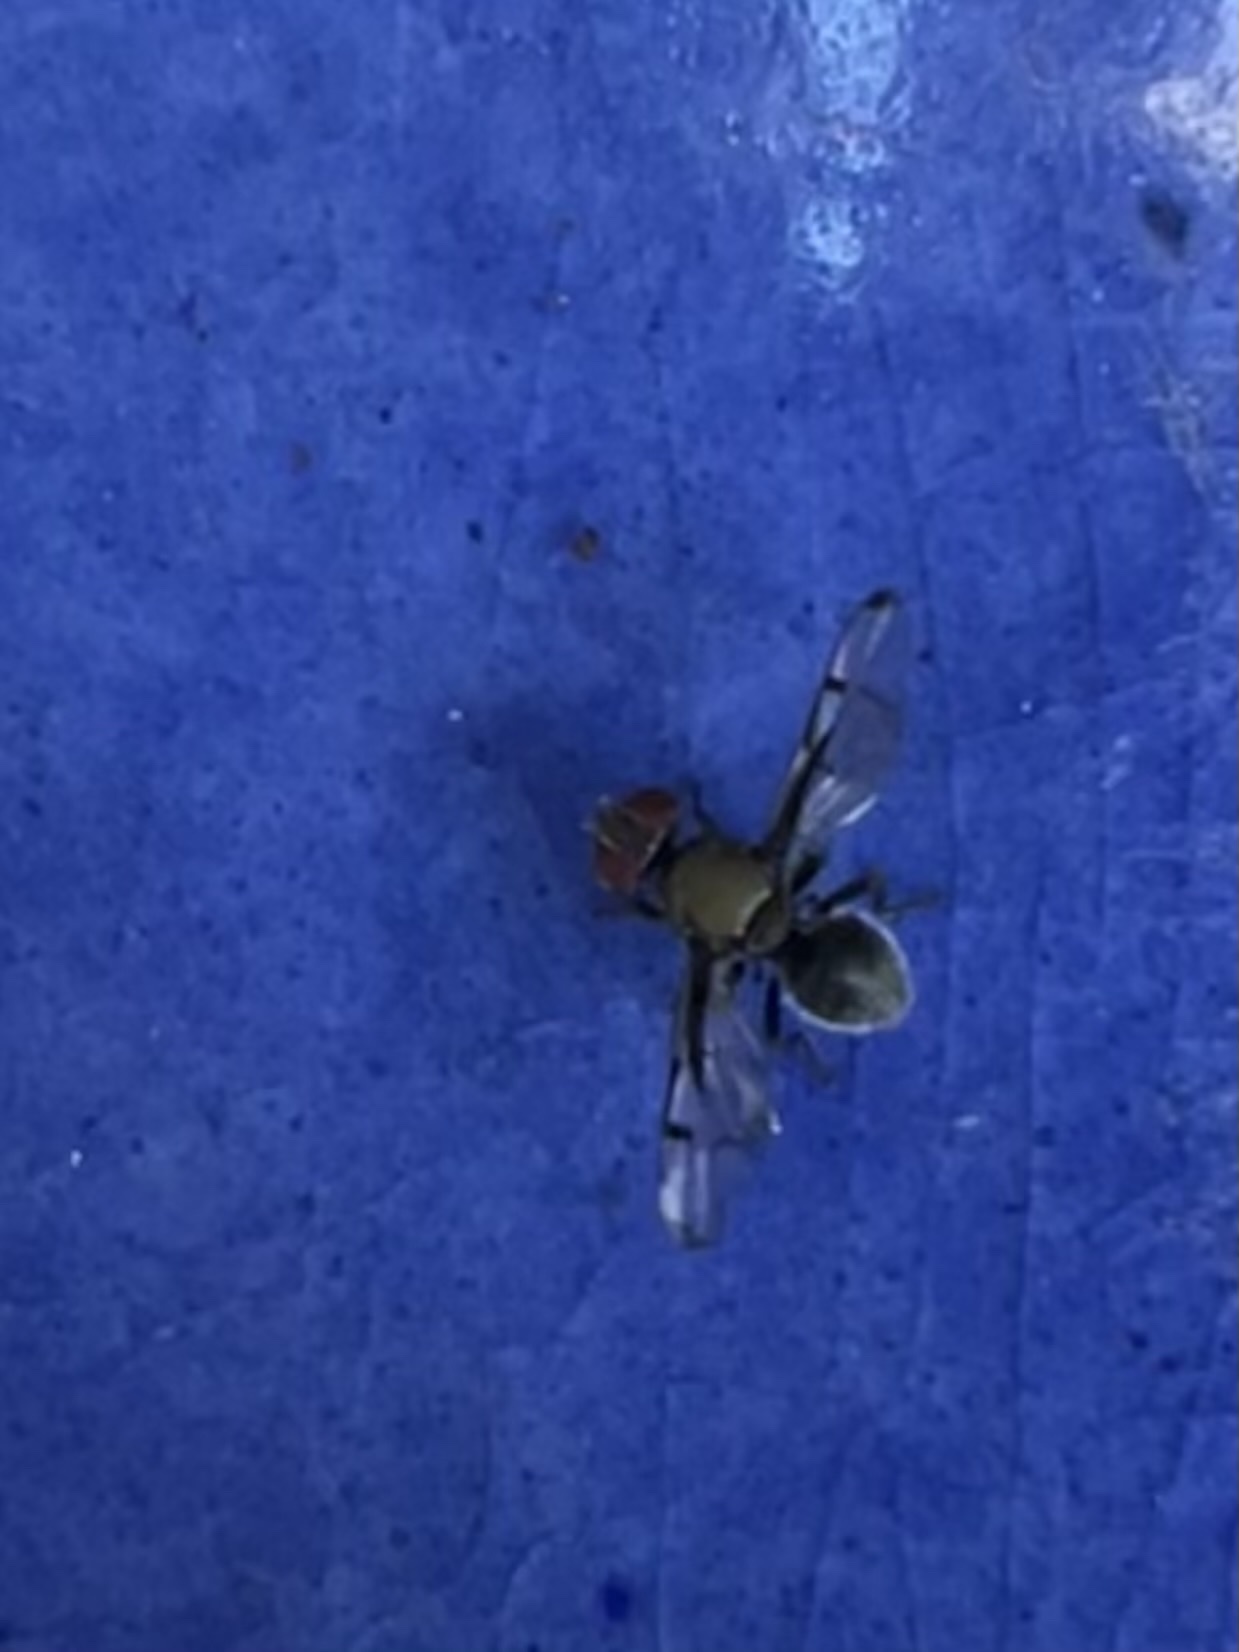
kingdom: Animalia
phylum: Arthropoda
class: Insecta
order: Diptera
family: Platystomatidae
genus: Pogonortalis
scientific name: Pogonortalis doclea
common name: Boatman fly
